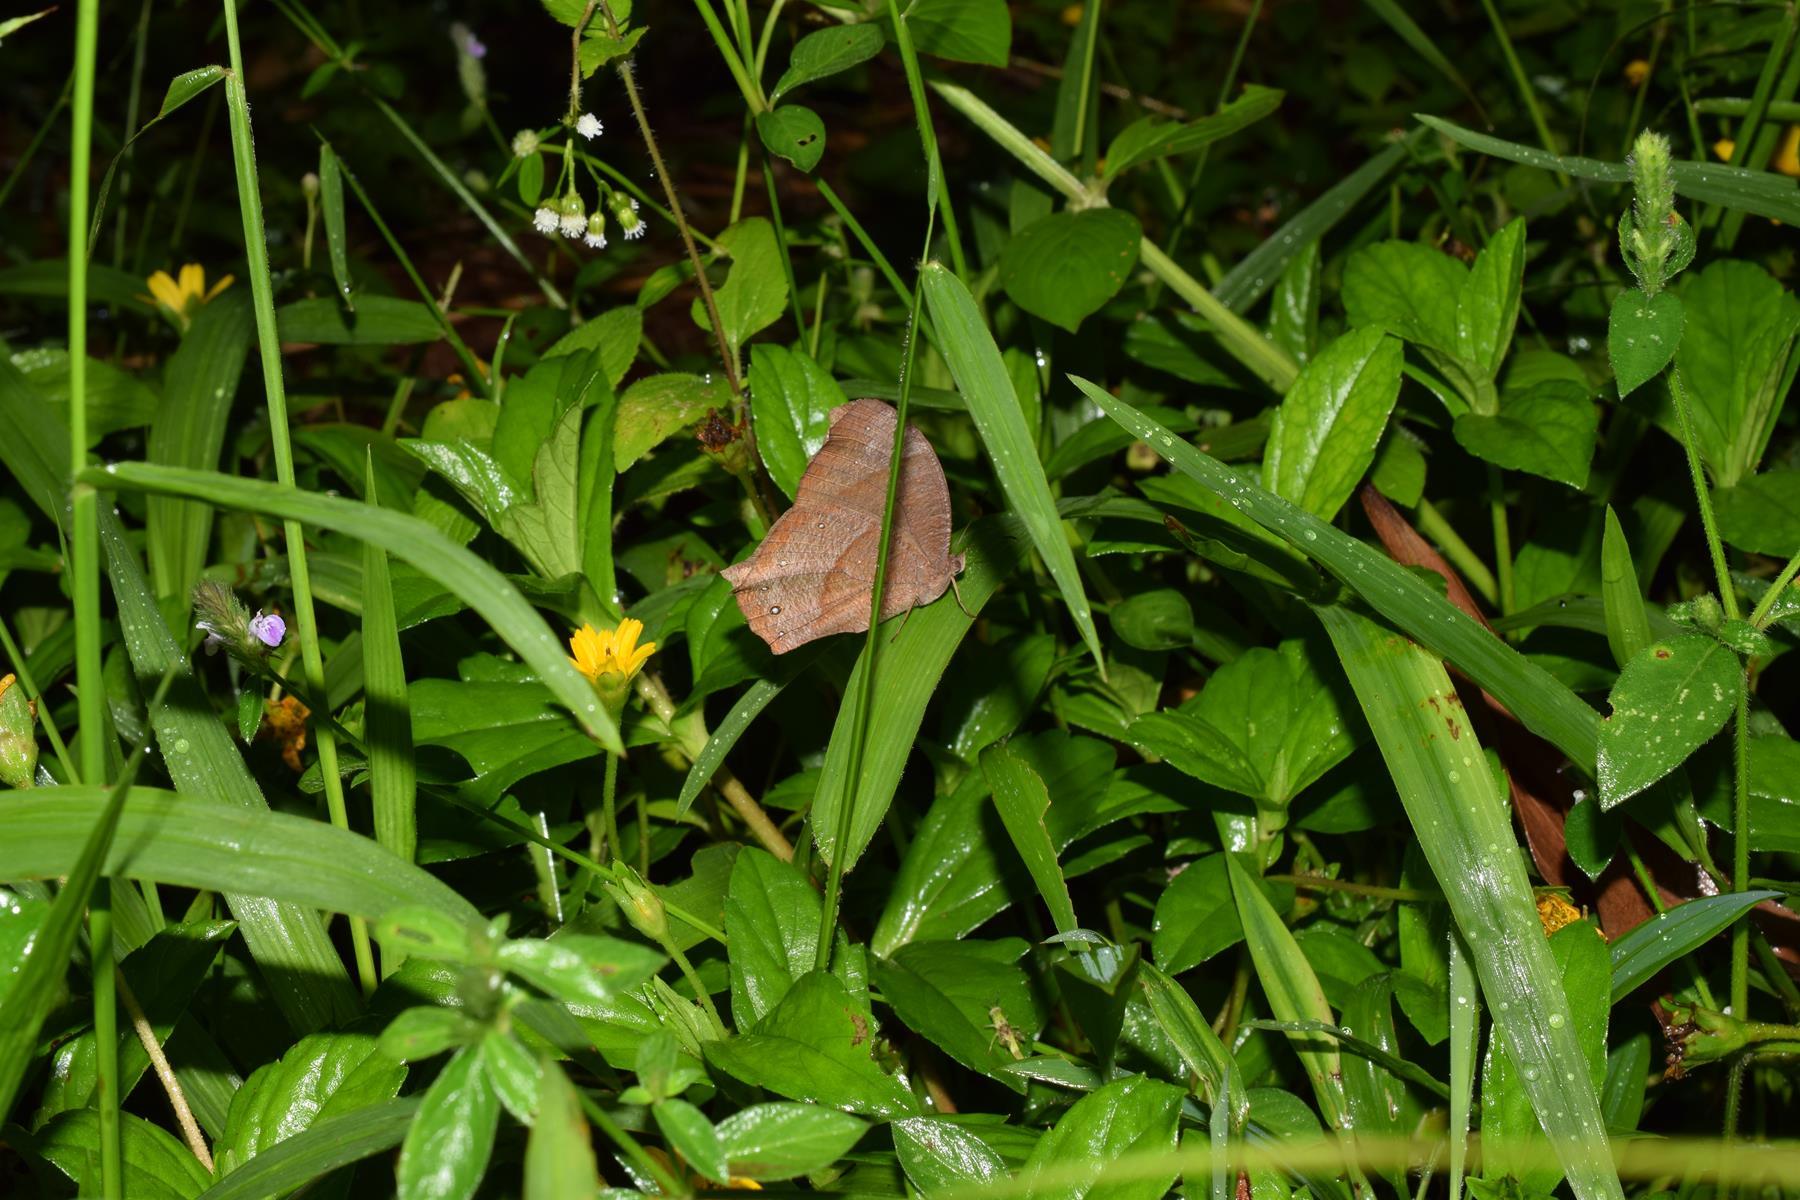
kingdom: Animalia
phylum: Arthropoda
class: Insecta
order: Lepidoptera
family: Nymphalidae
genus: Melanitis
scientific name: Melanitis phedima
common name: Dark evening brown
